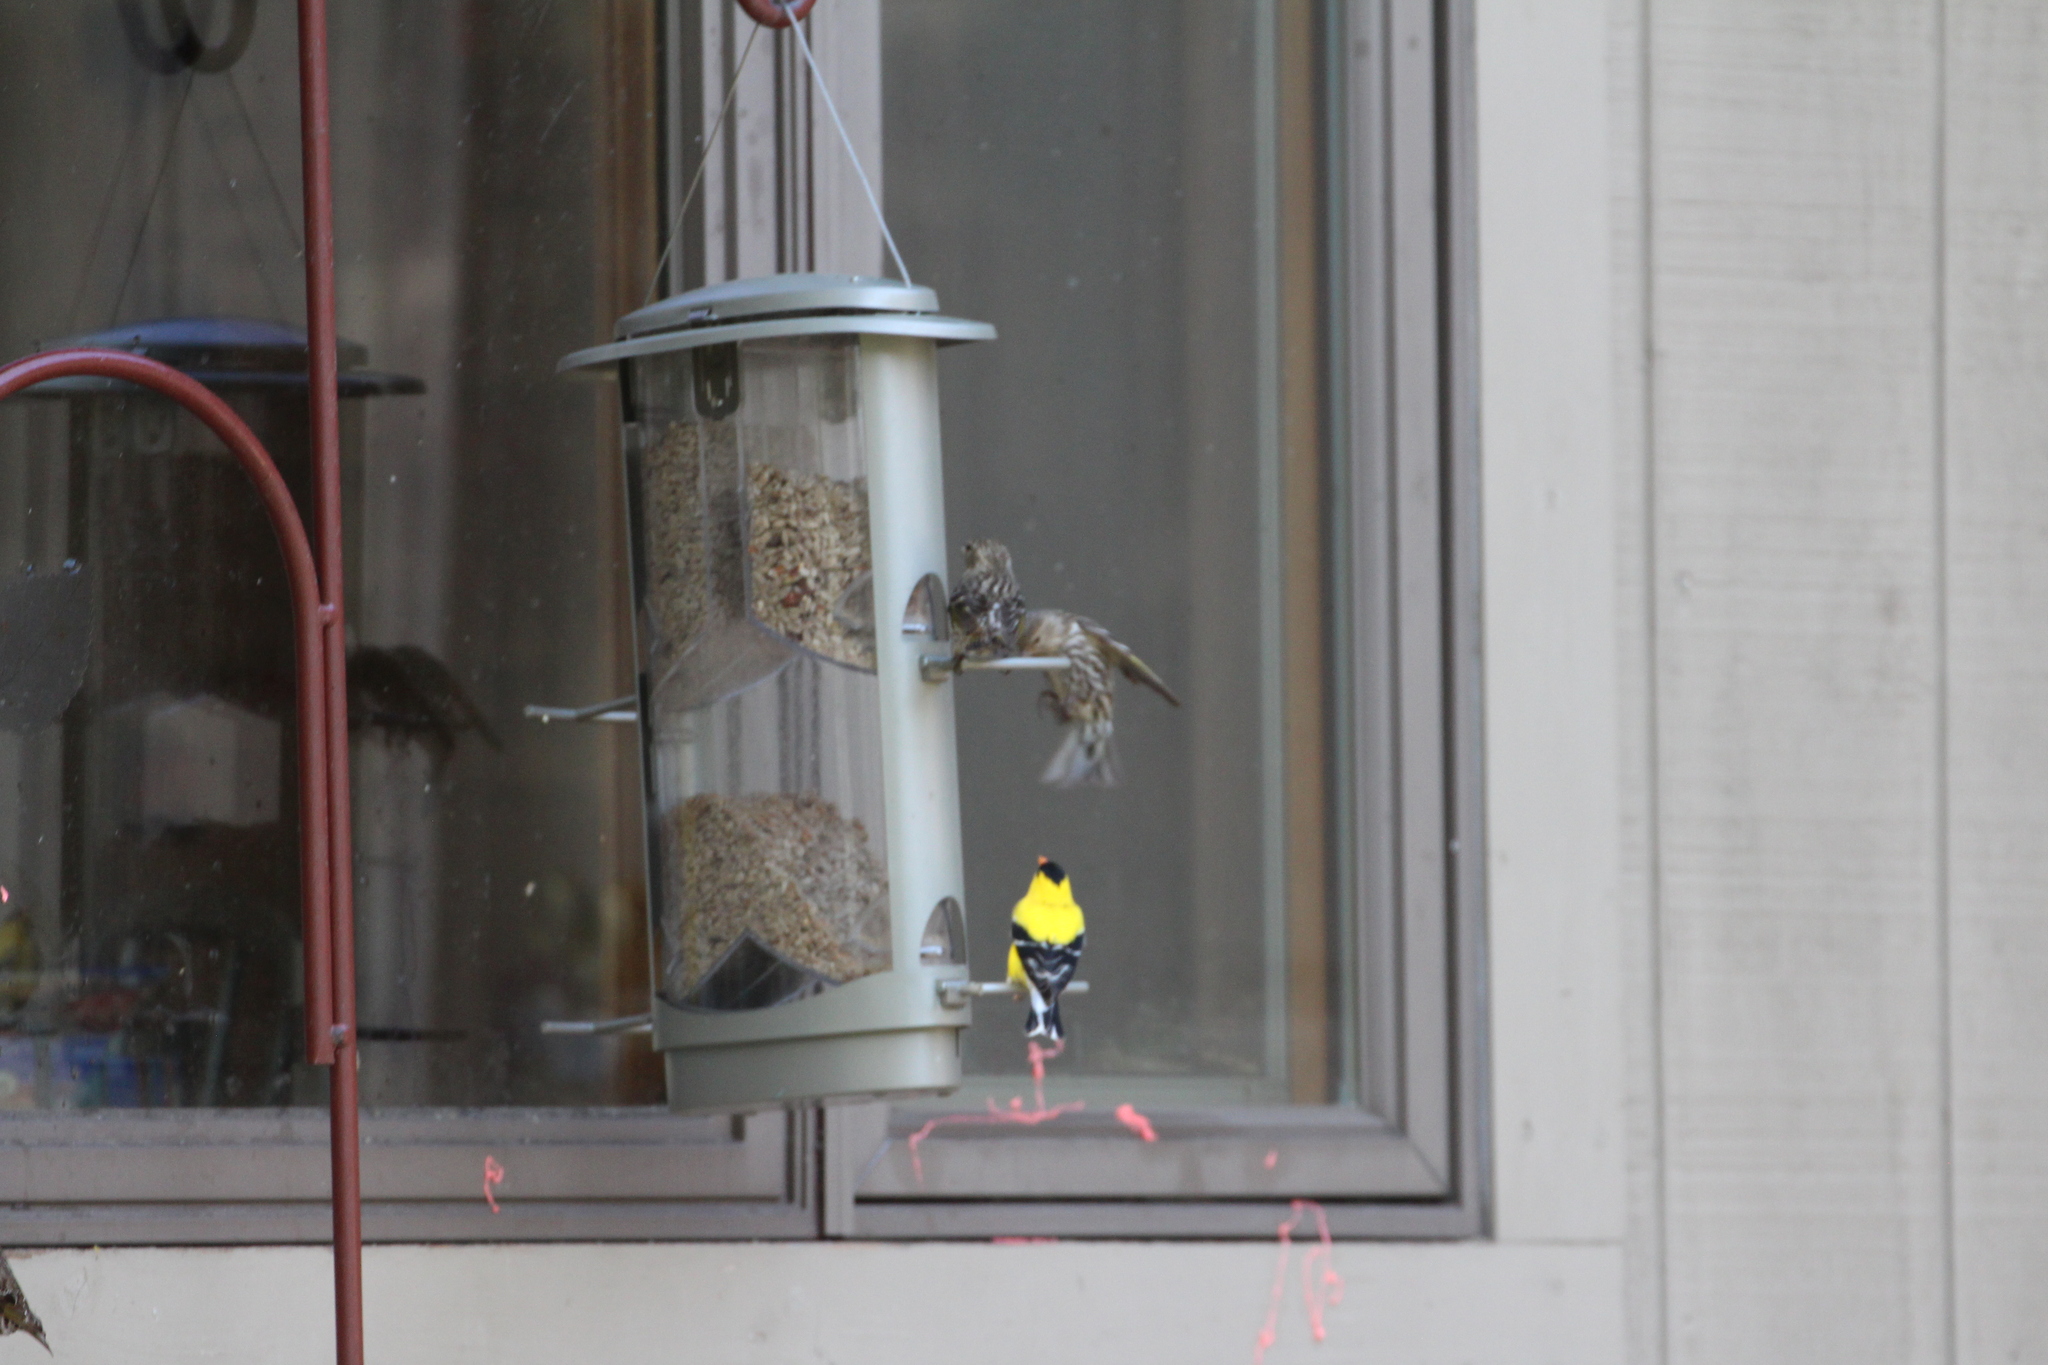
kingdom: Animalia
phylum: Chordata
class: Aves
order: Passeriformes
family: Fringillidae
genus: Spinus
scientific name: Spinus pinus
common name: Pine siskin
